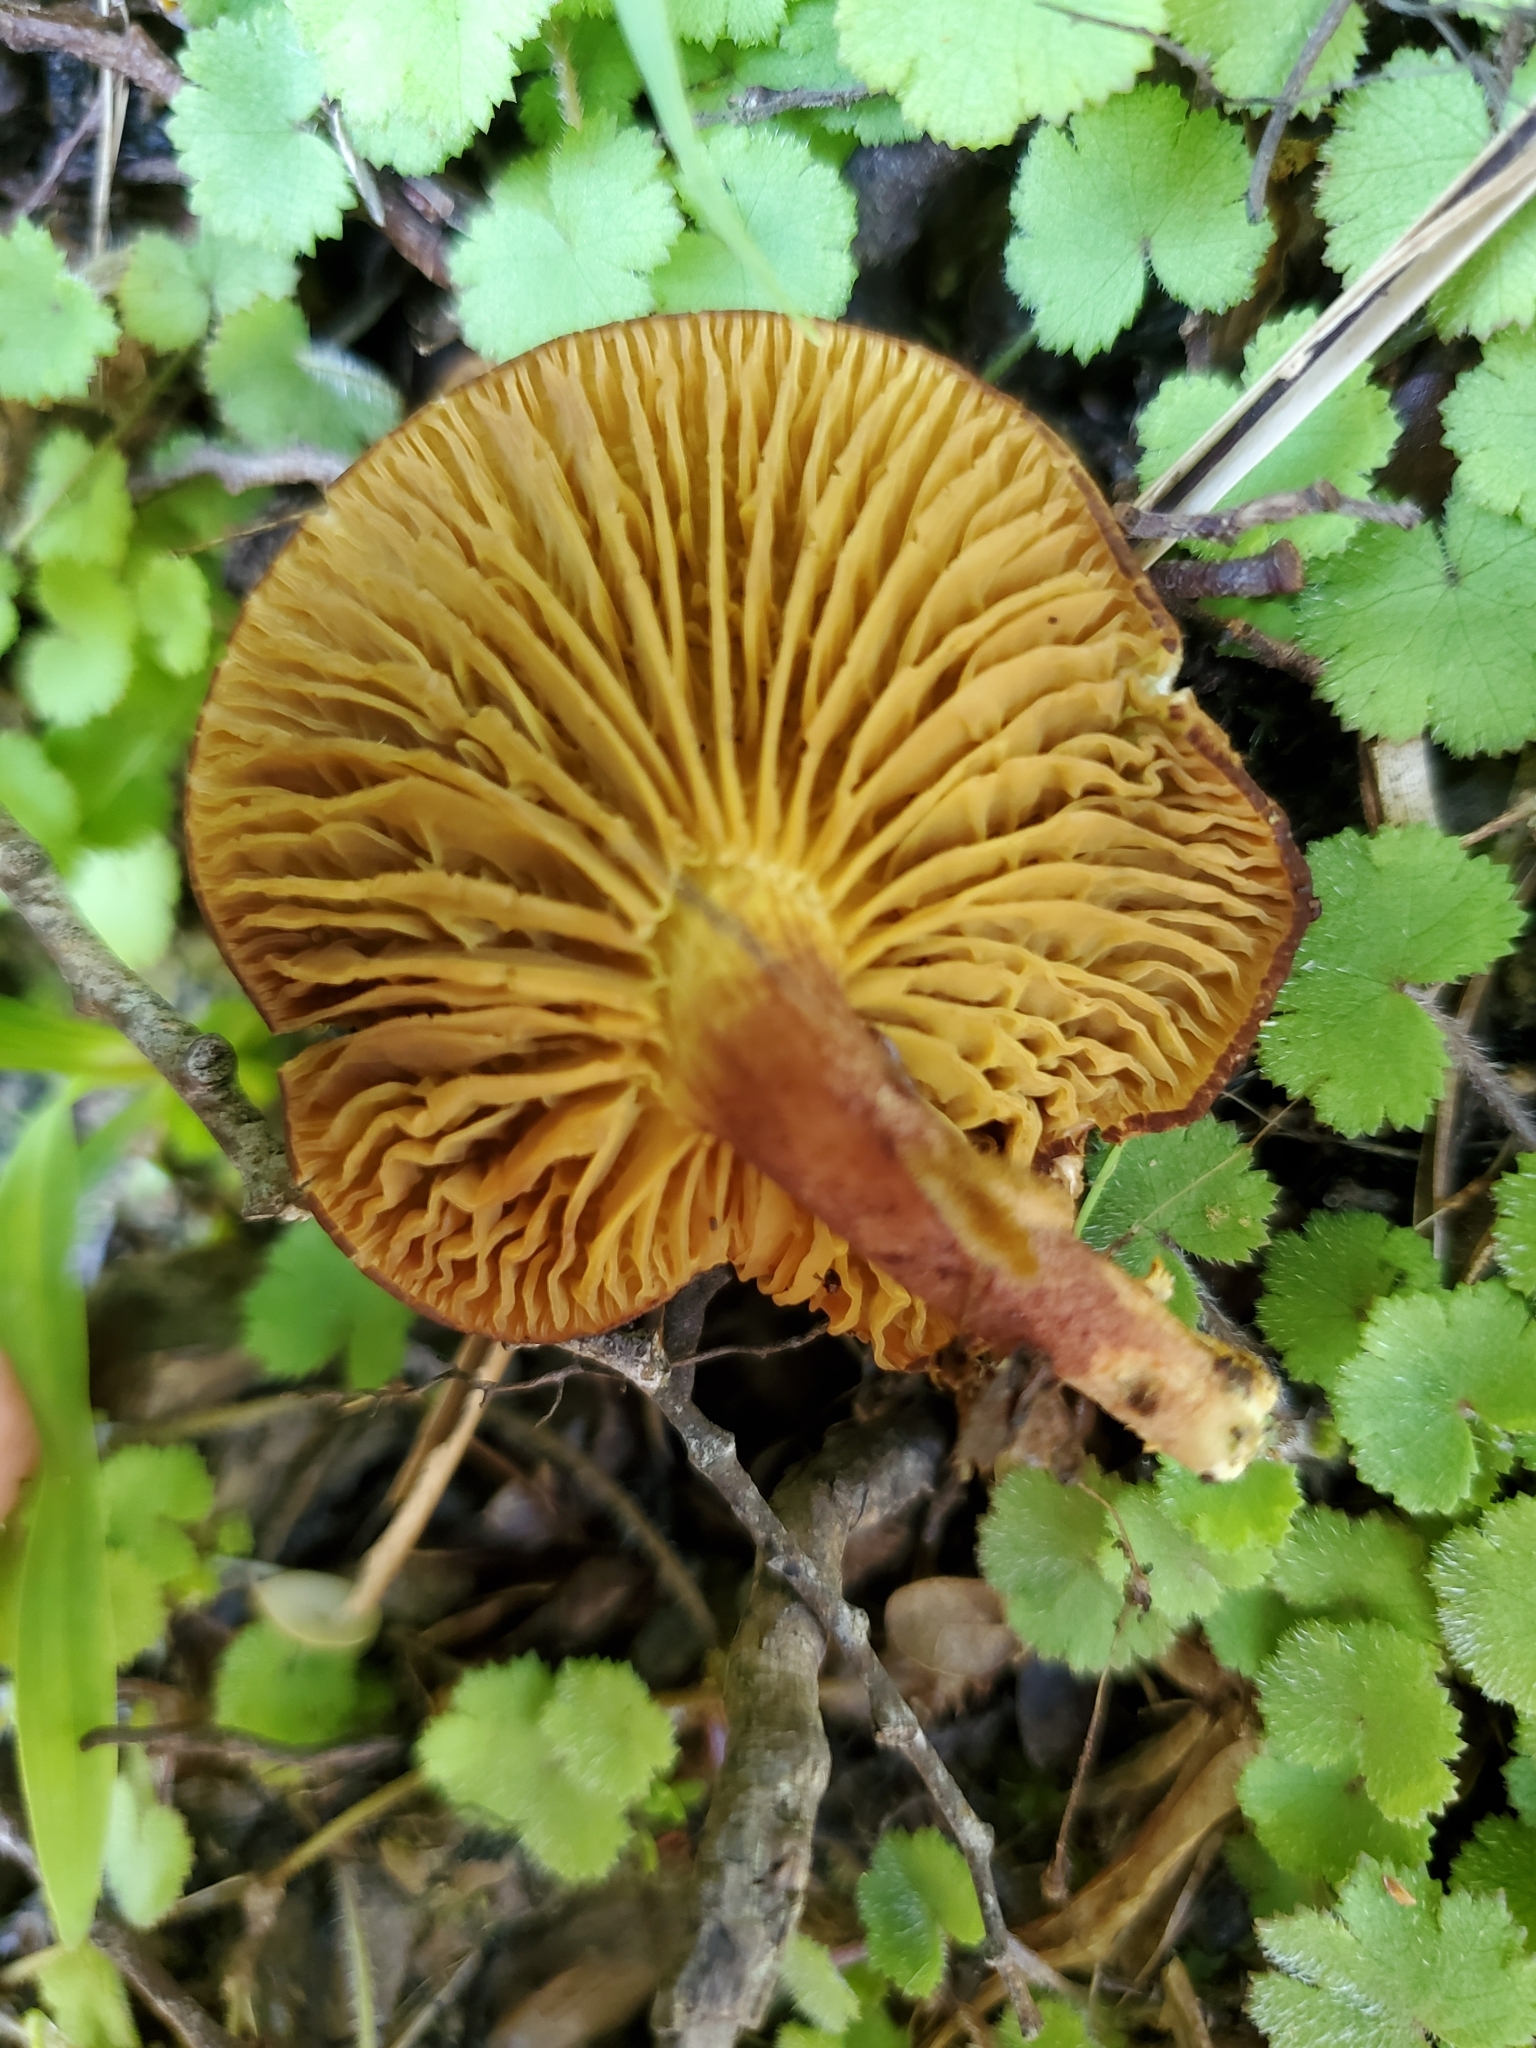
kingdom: Fungi
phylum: Basidiomycota
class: Agaricomycetes
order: Boletales
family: Boletaceae
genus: Phylloporus
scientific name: Phylloporus novae-zelandiae
